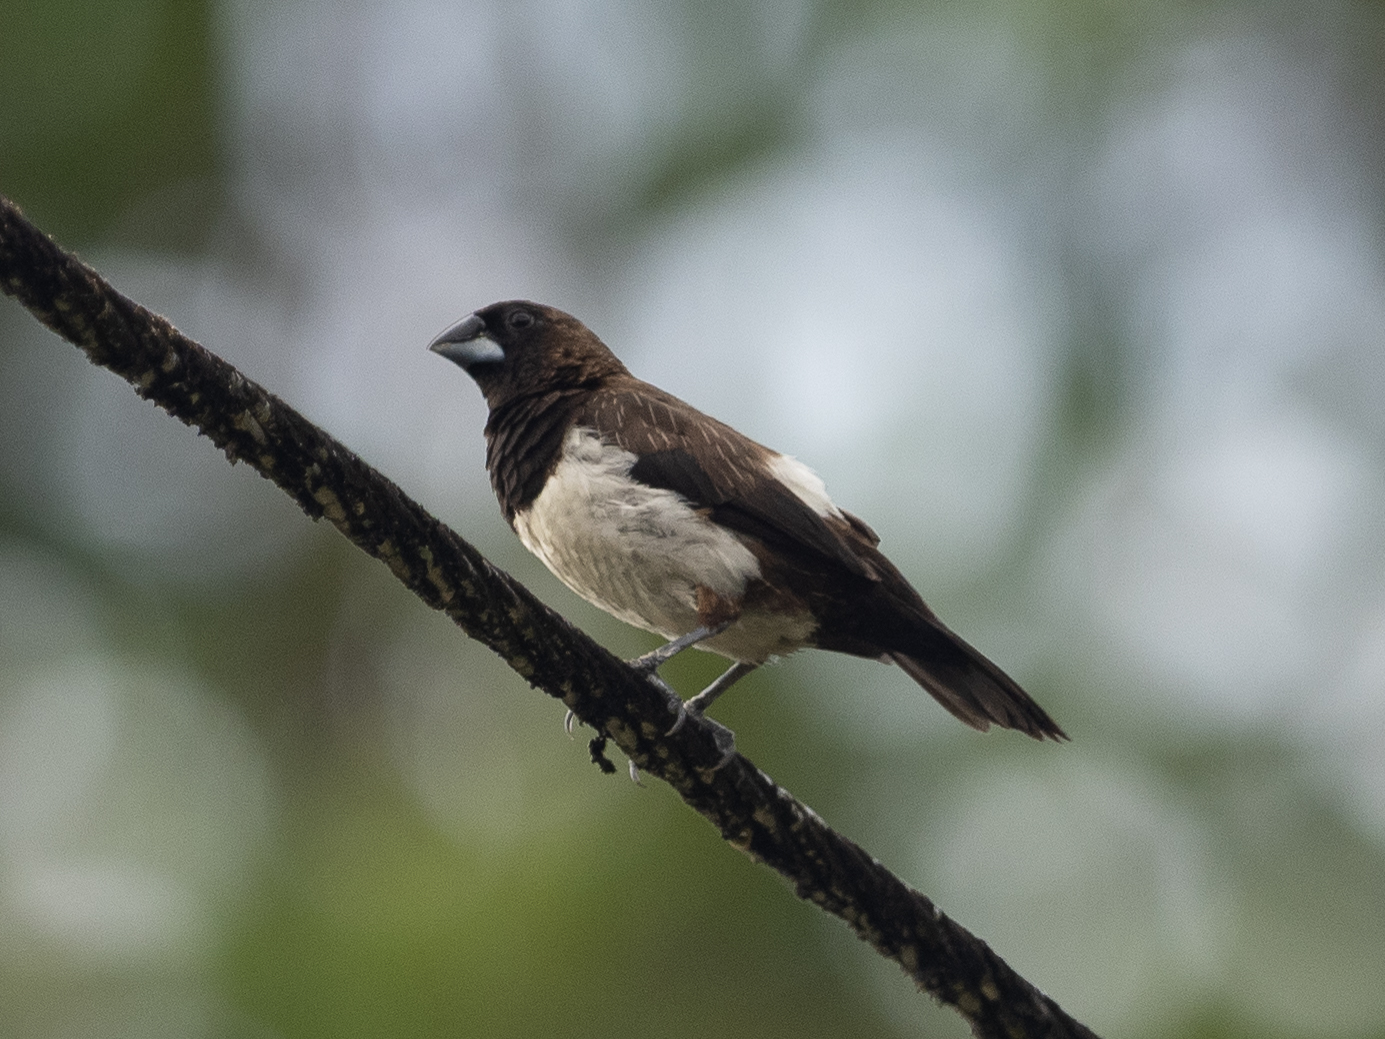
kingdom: Animalia
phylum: Chordata
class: Aves
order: Passeriformes
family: Estrildidae
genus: Lonchura
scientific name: Lonchura striata
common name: White-rumped munia
